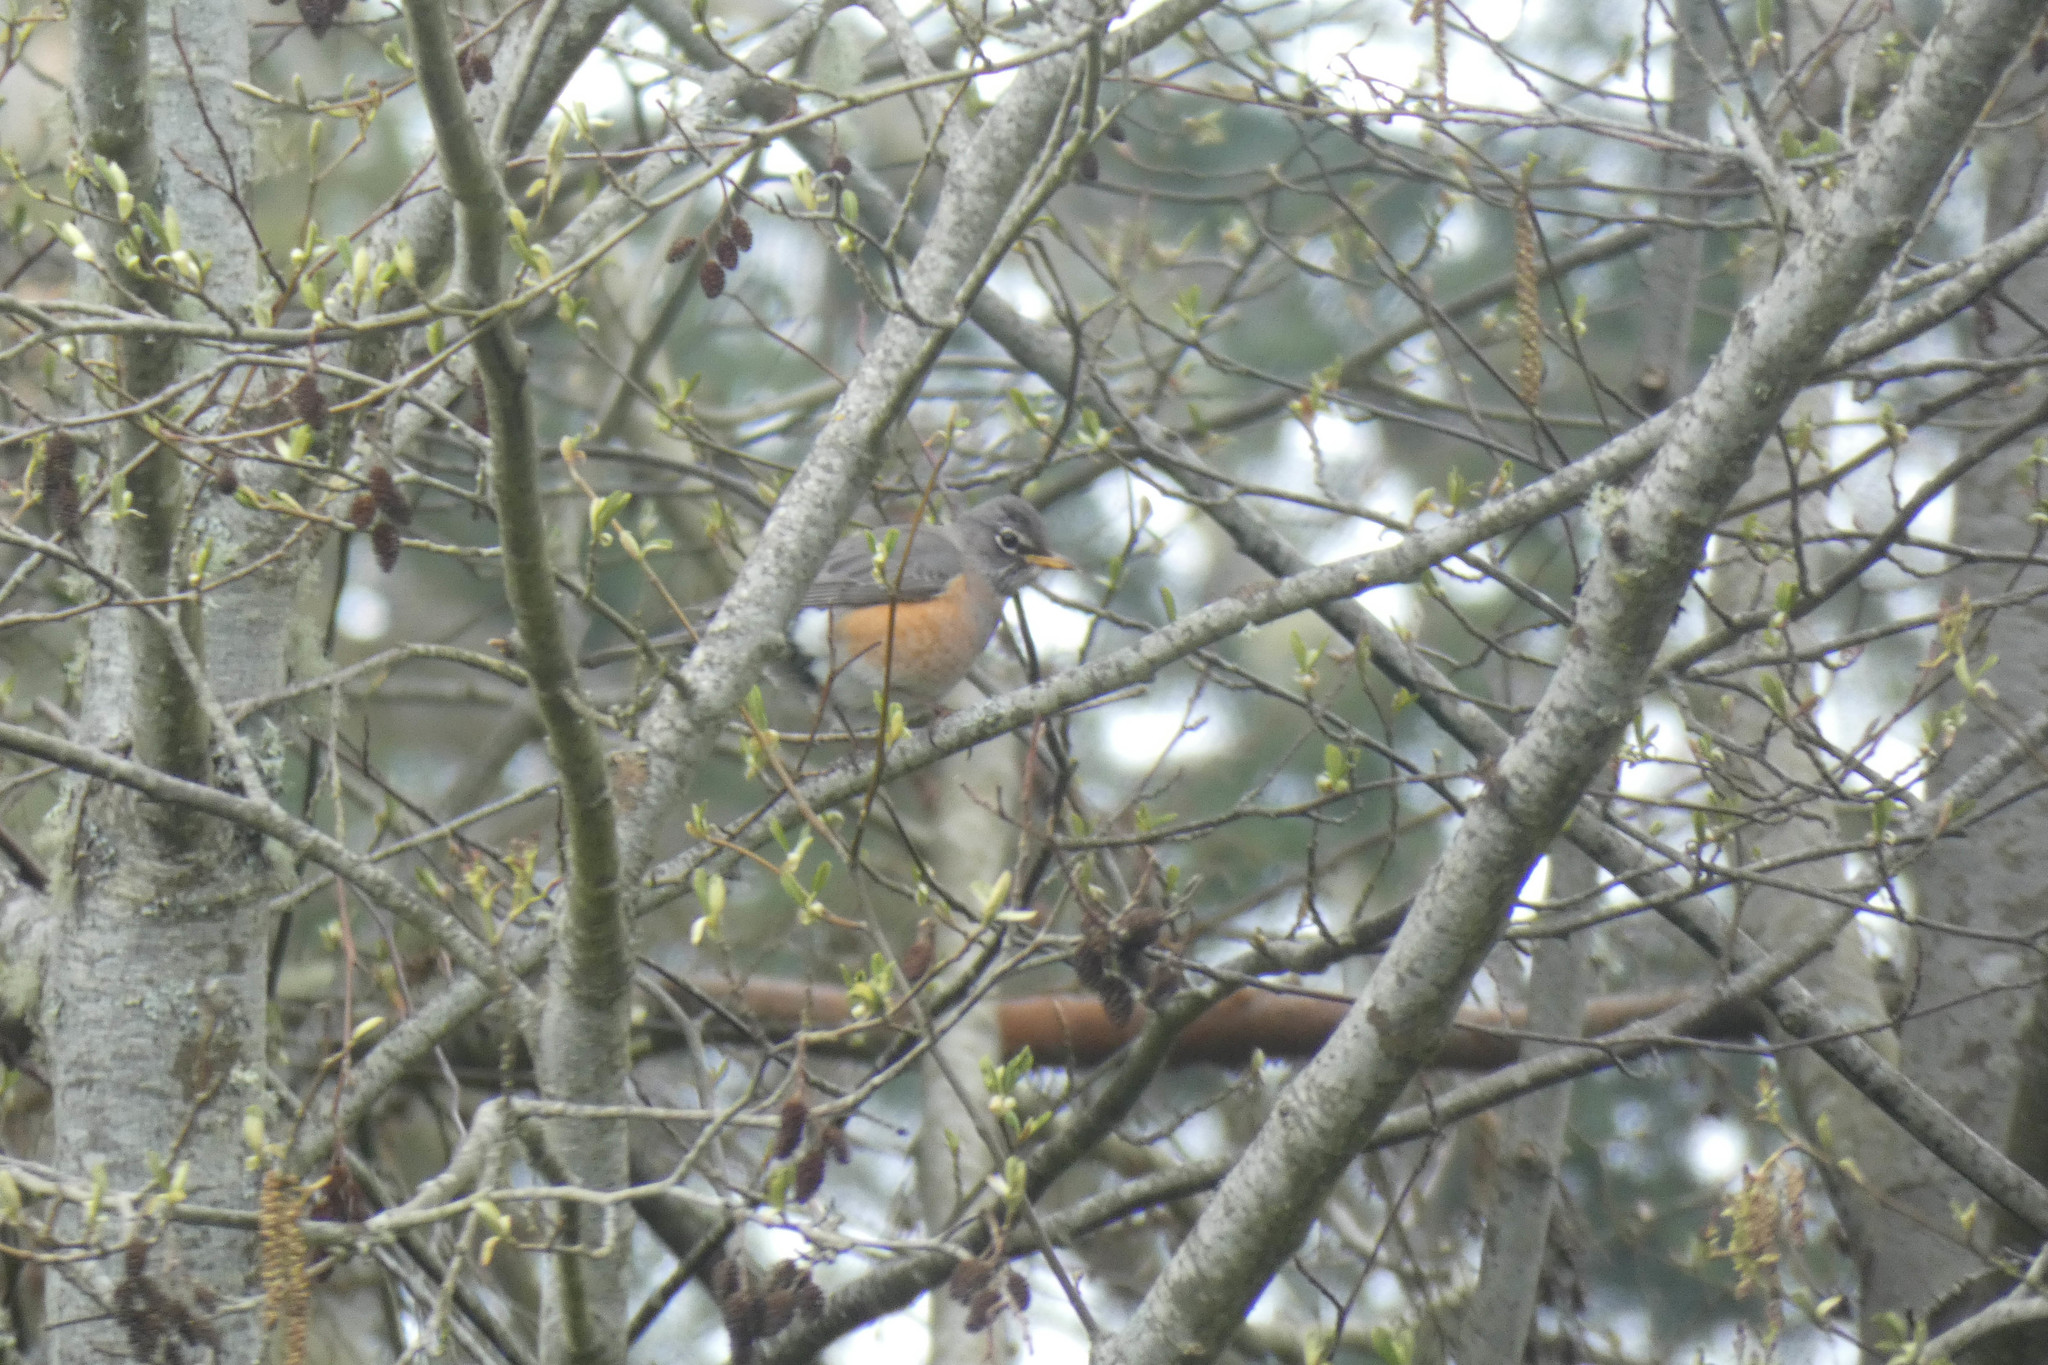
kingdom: Animalia
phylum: Chordata
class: Aves
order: Passeriformes
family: Turdidae
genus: Turdus
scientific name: Turdus migratorius
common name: American robin
